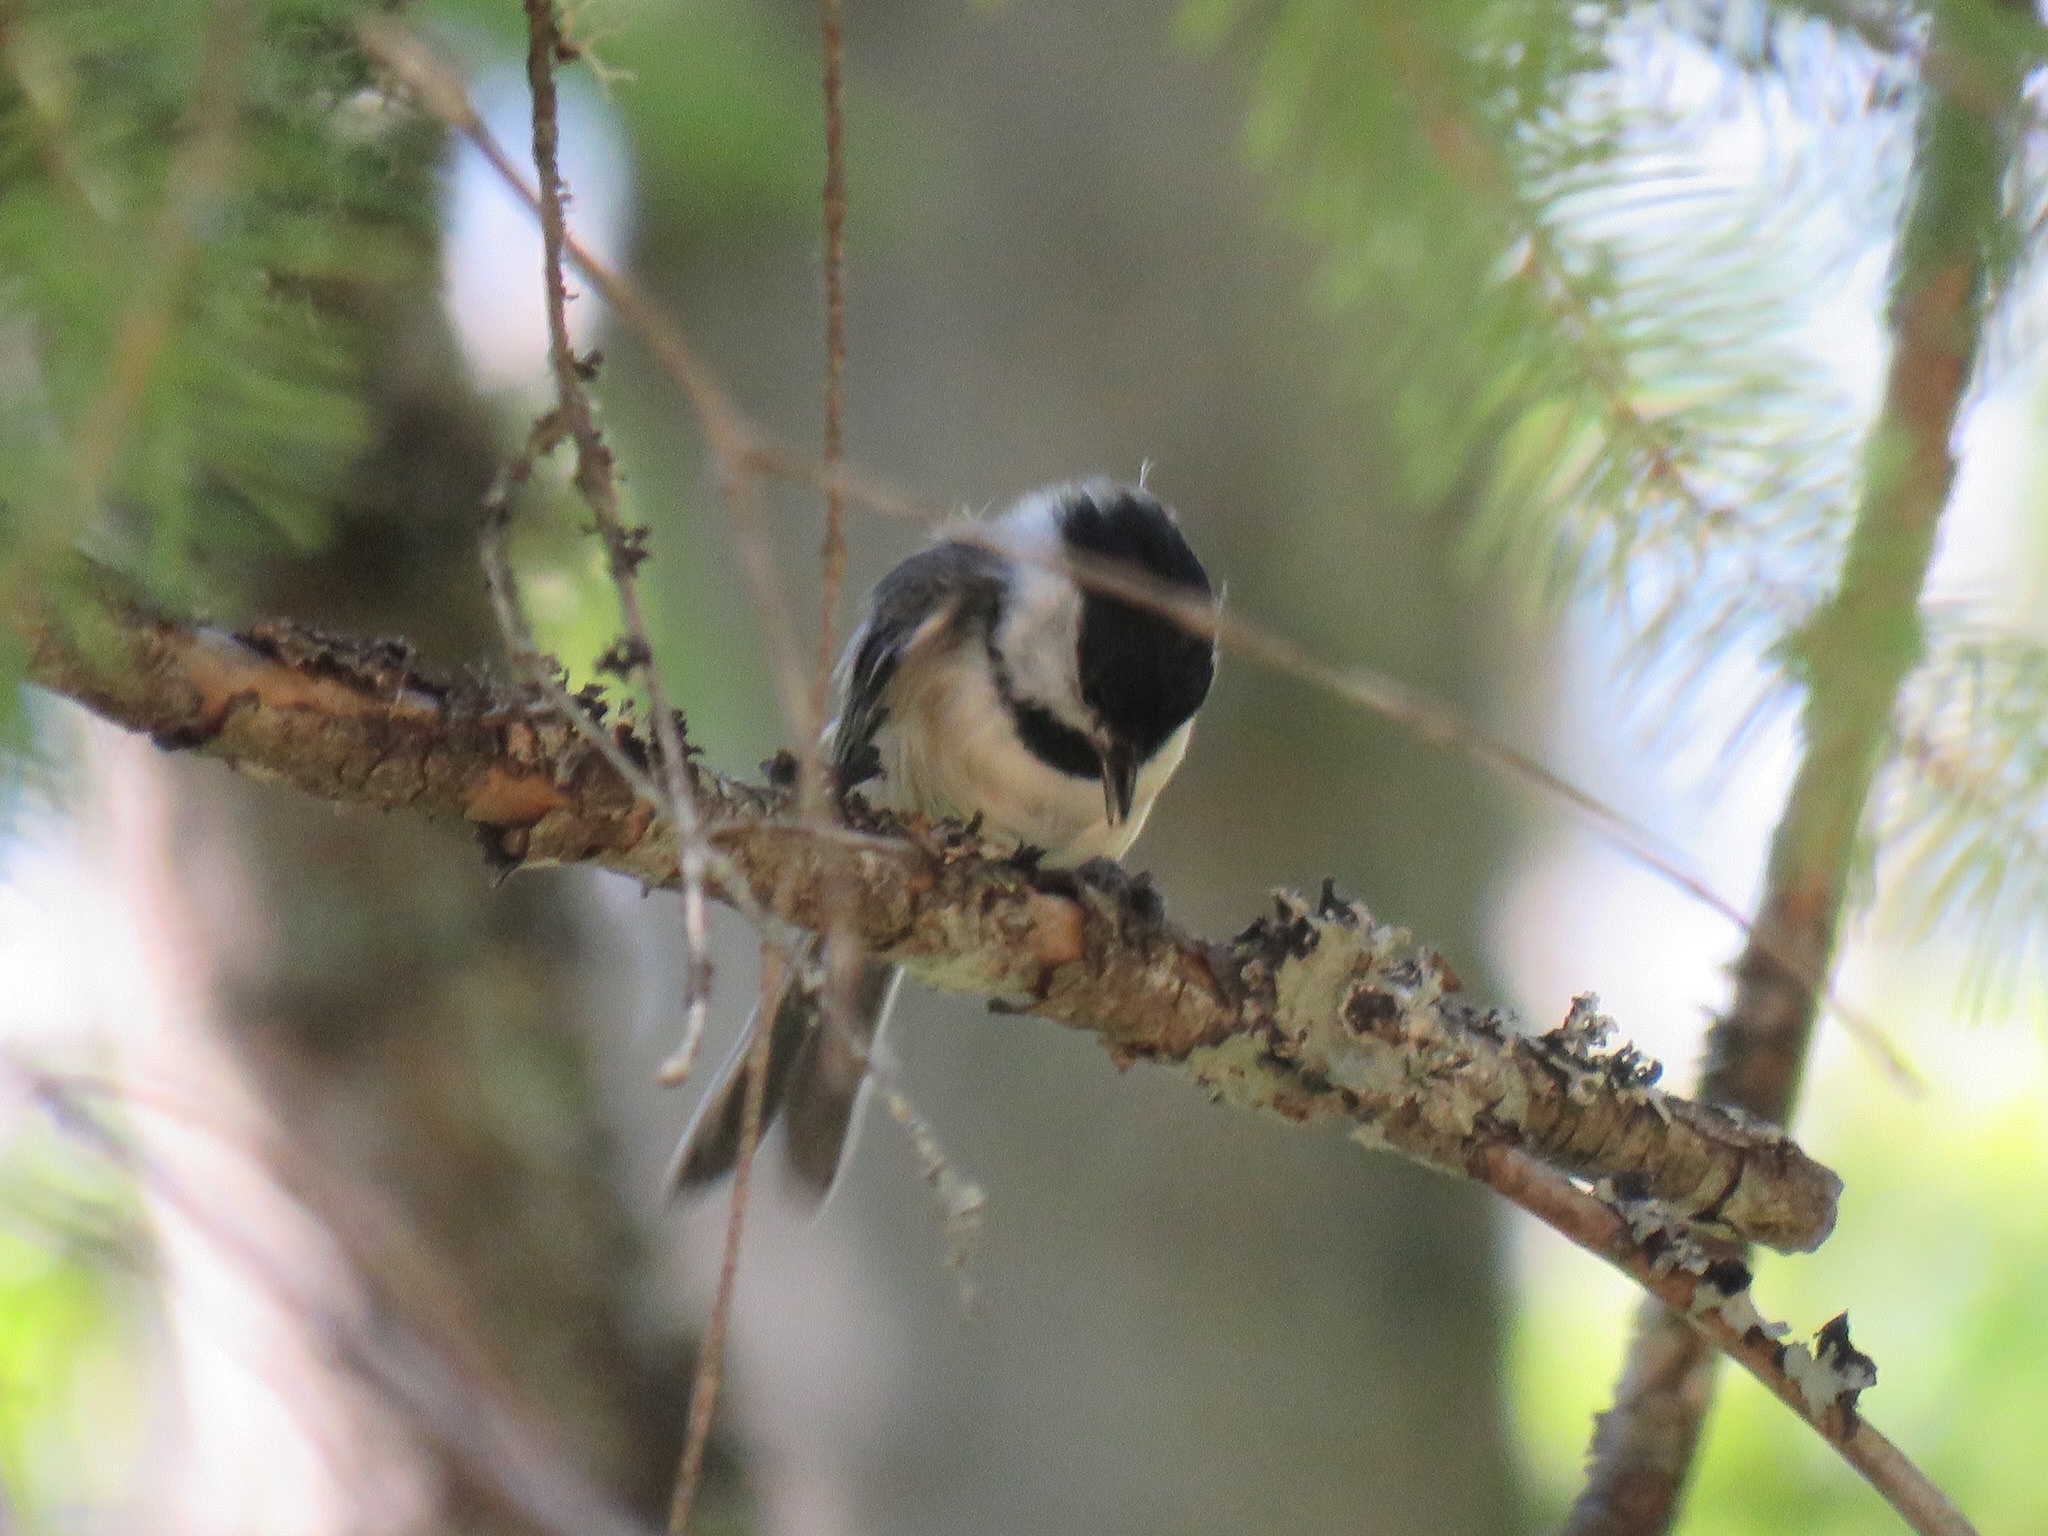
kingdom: Animalia
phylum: Chordata
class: Aves
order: Passeriformes
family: Paridae
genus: Poecile
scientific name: Poecile atricapillus
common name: Black-capped chickadee
